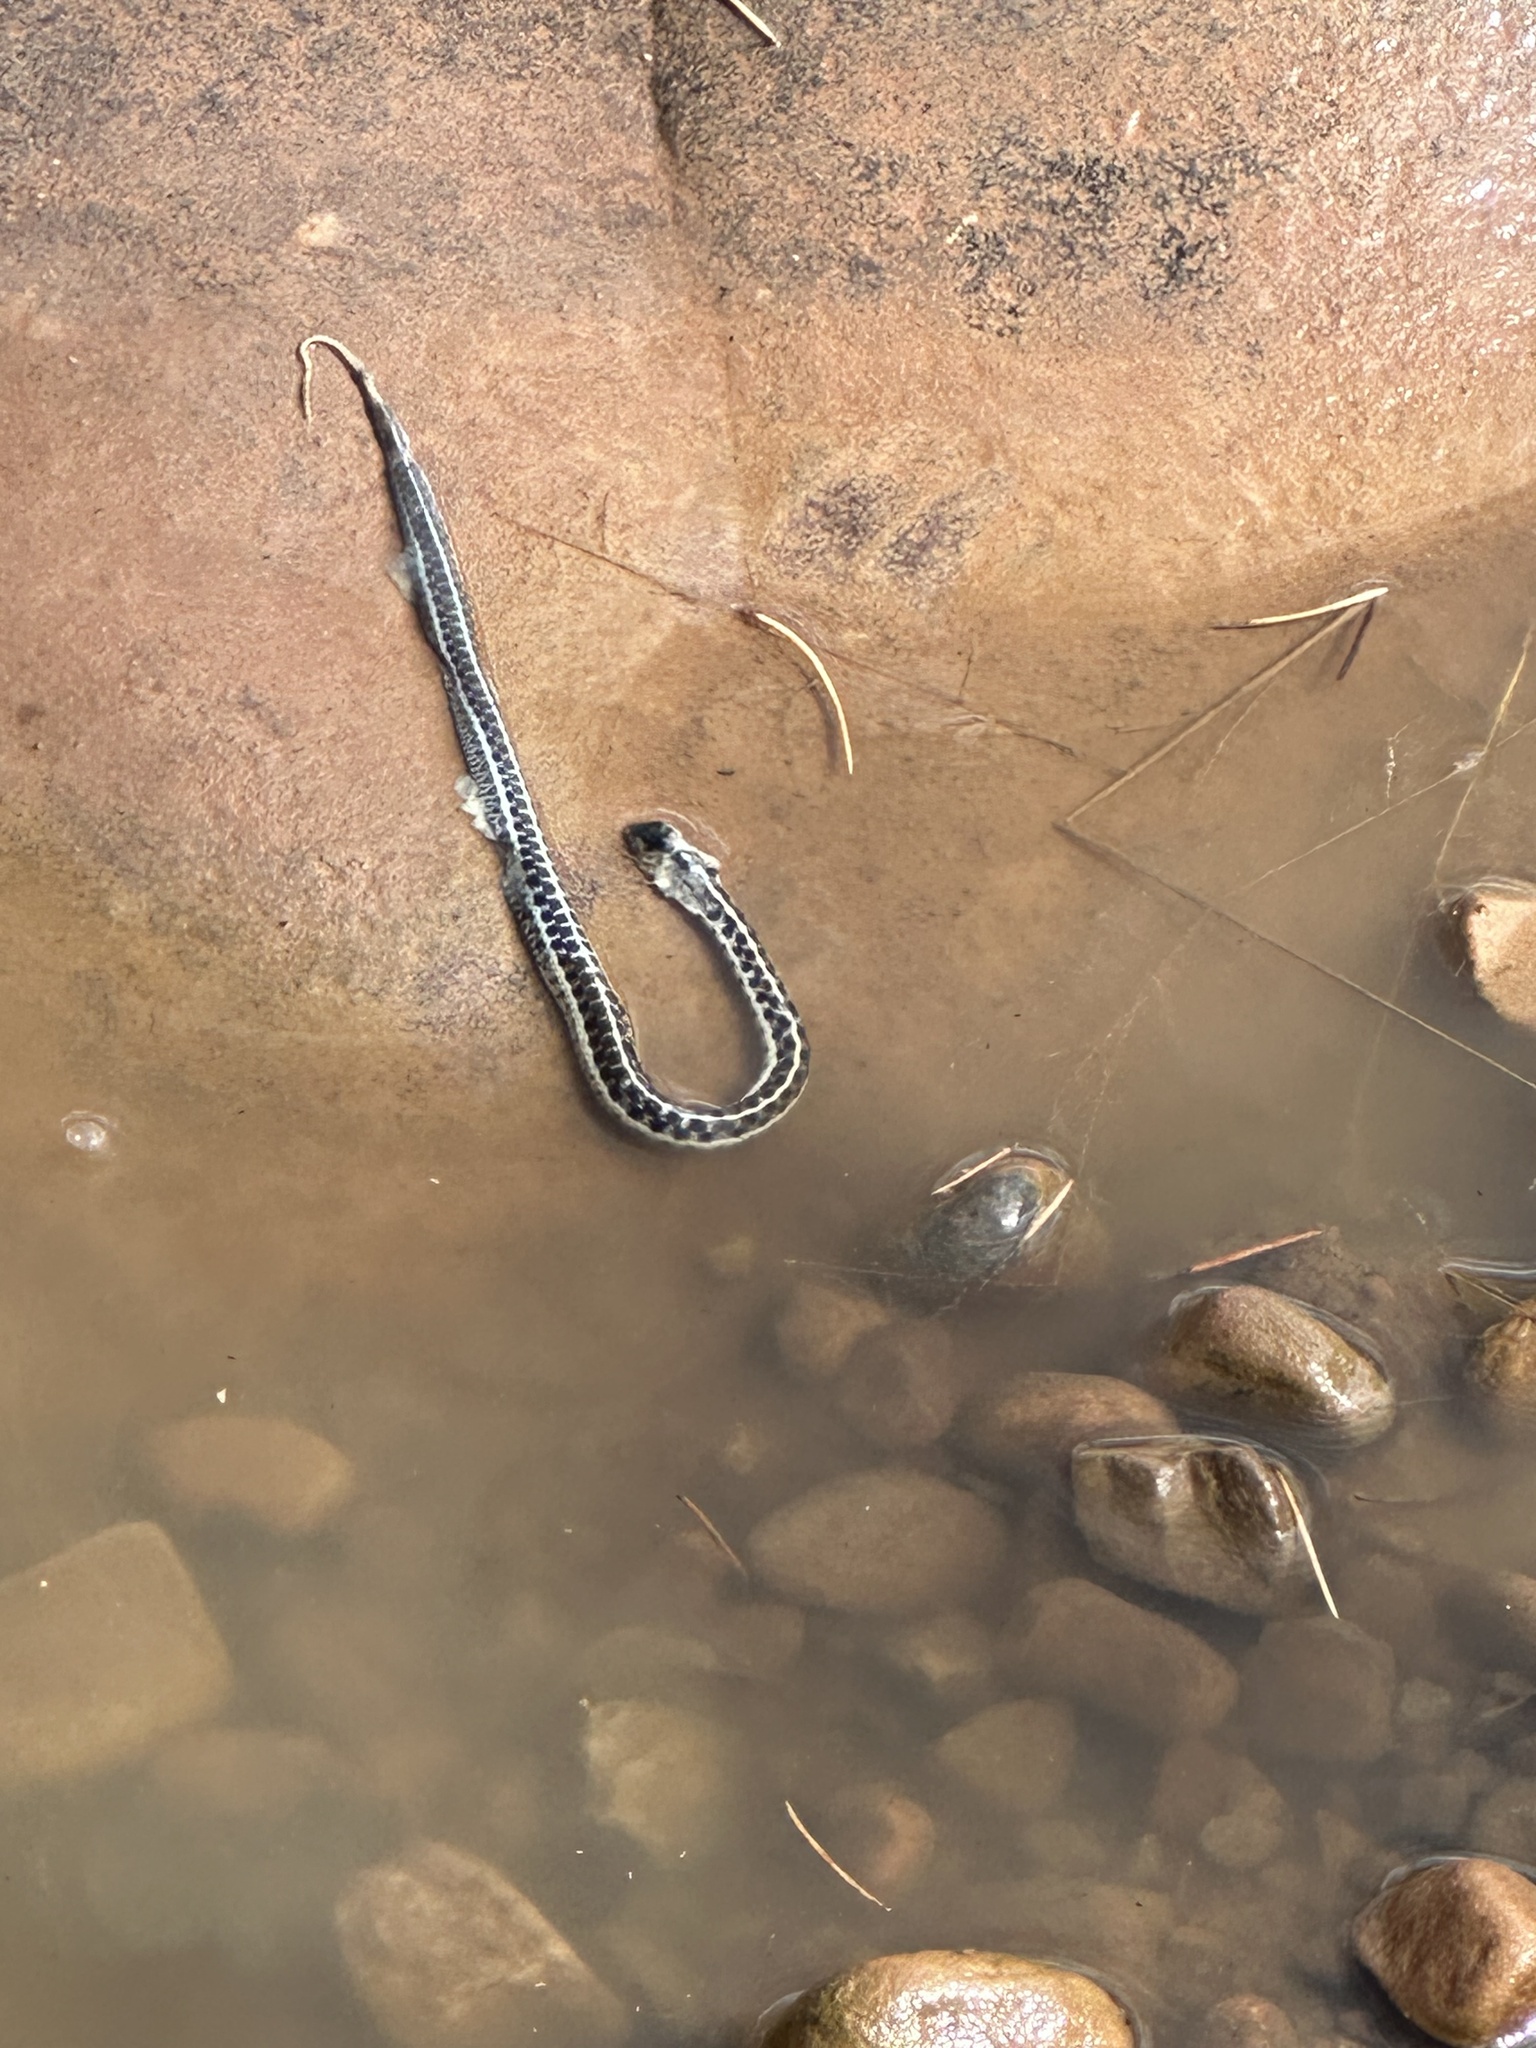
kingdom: Animalia
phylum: Chordata
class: Squamata
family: Colubridae
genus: Thamnophis
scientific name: Thamnophis cyrtopsis
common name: Black-necked gartersnake
